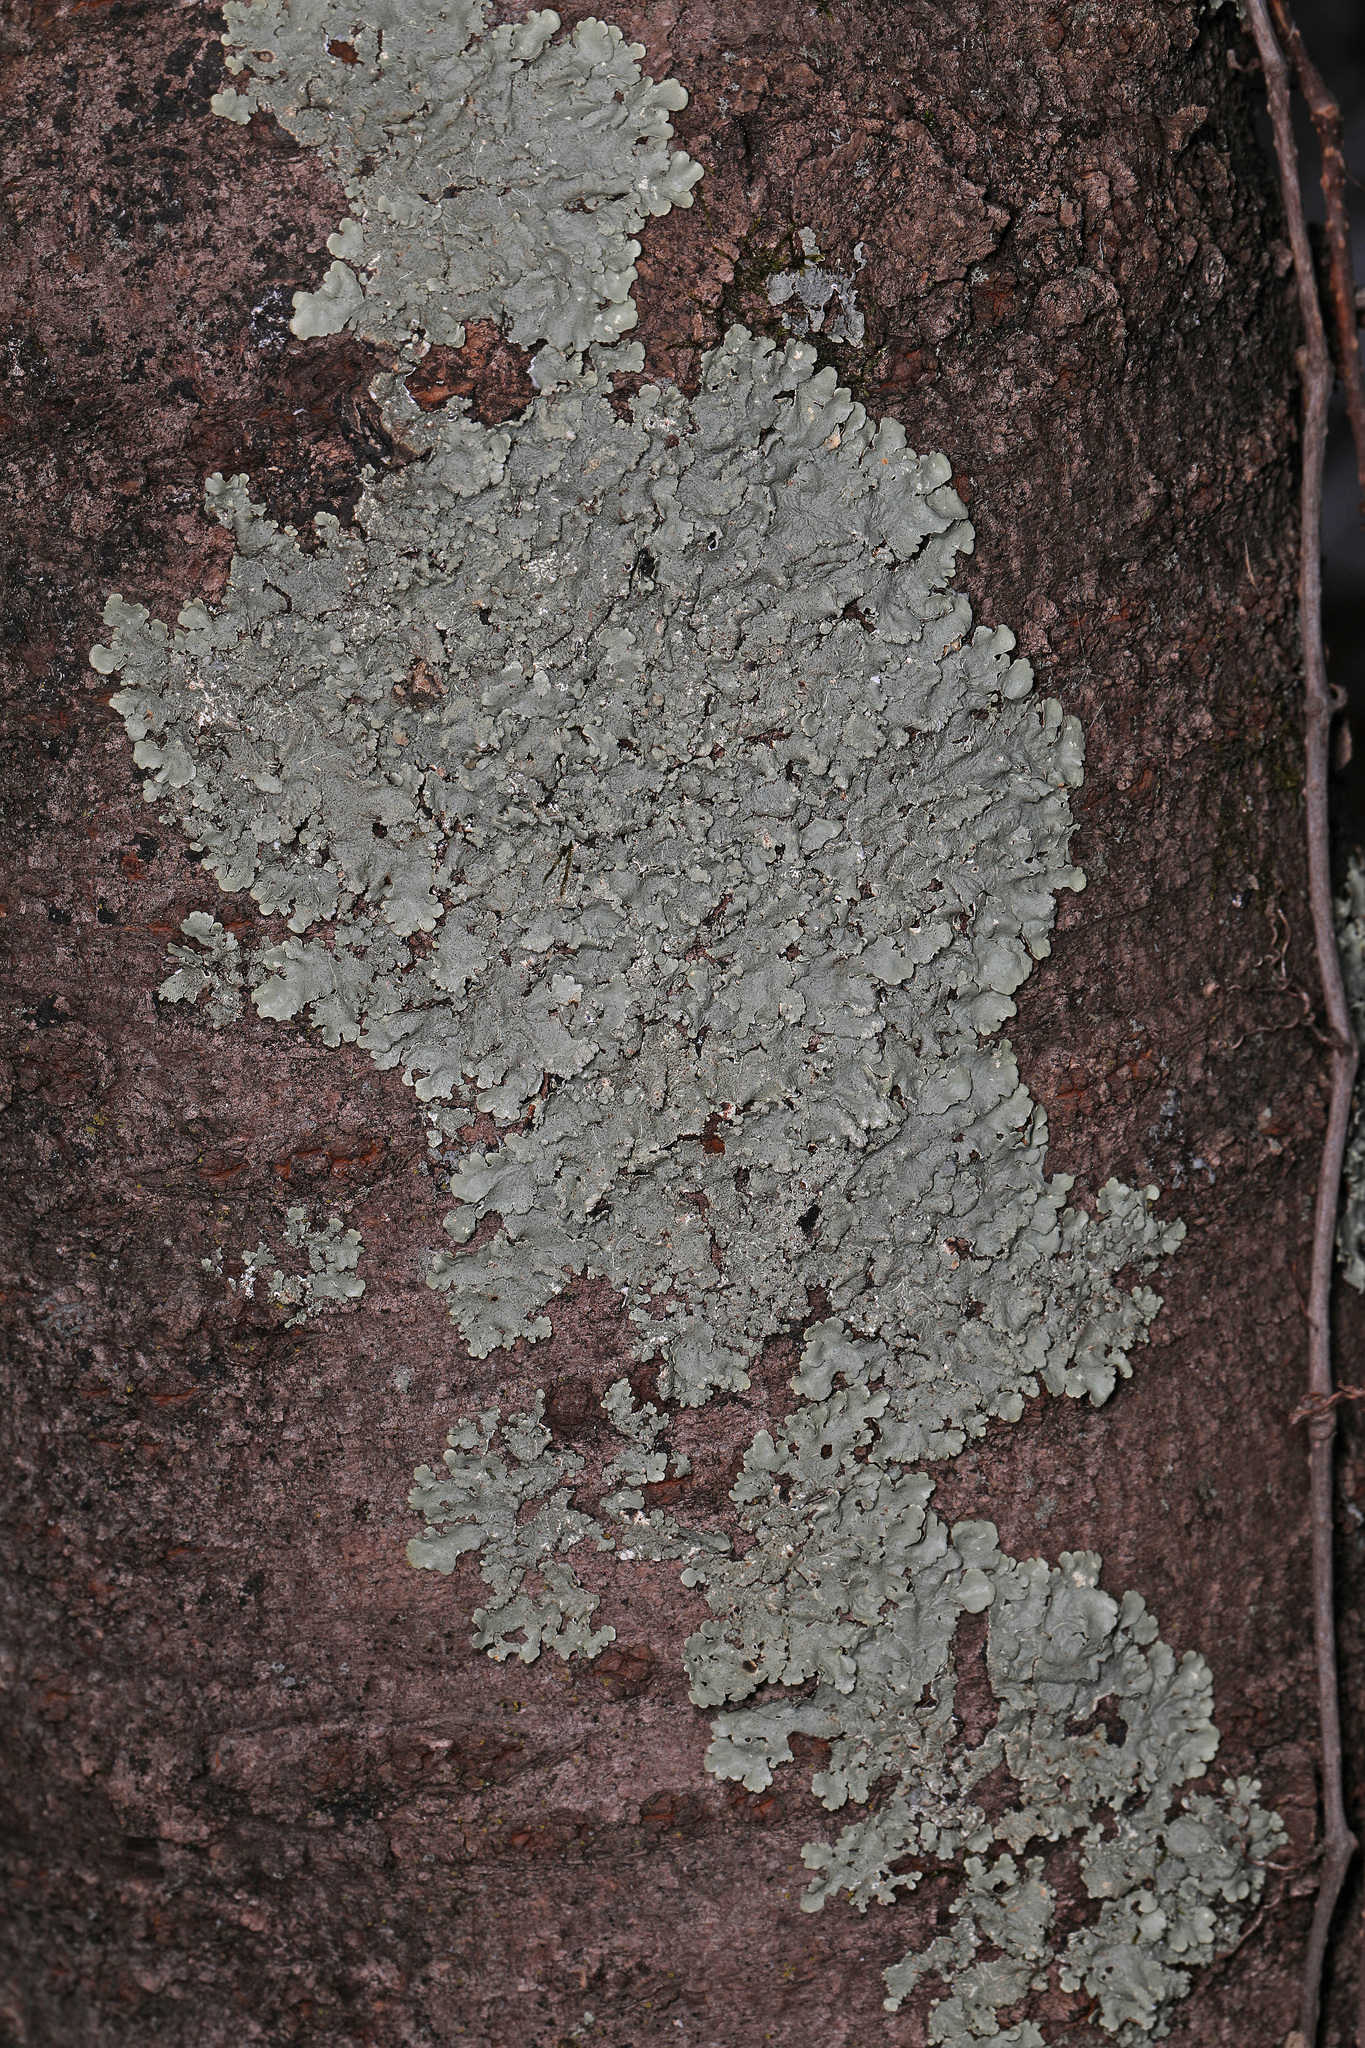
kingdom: Fungi
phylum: Ascomycota
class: Lecanoromycetes
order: Lecanorales
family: Parmeliaceae
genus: Flavoparmelia
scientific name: Flavoparmelia caperata
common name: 40-mile per hour lichen
